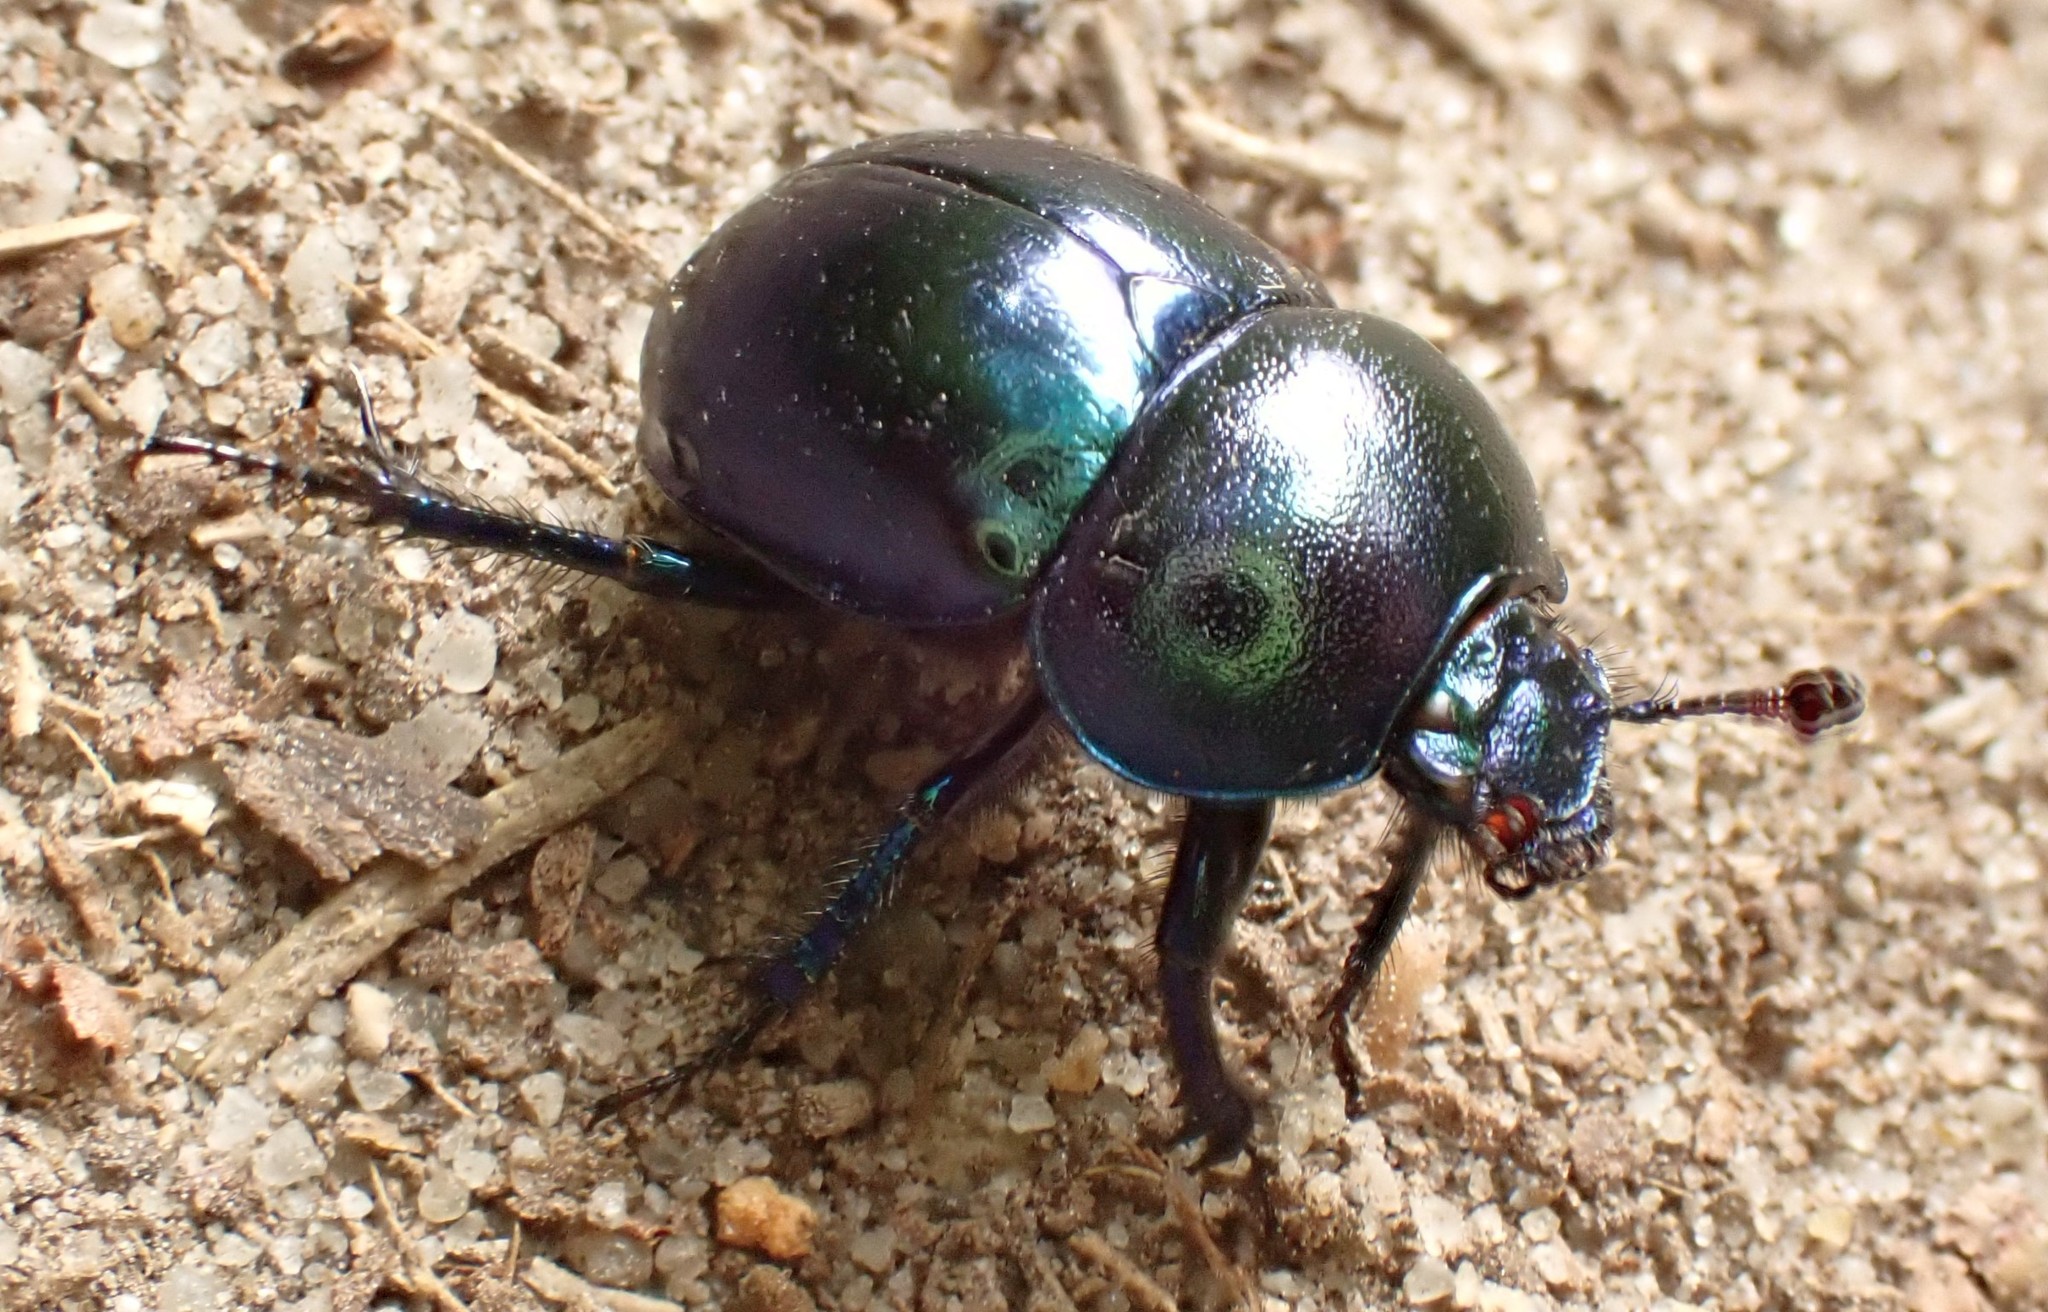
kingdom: Animalia
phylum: Arthropoda
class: Insecta
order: Coleoptera
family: Geotrupidae
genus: Trypocopris
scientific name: Trypocopris vernalis
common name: Spring dumbledor
